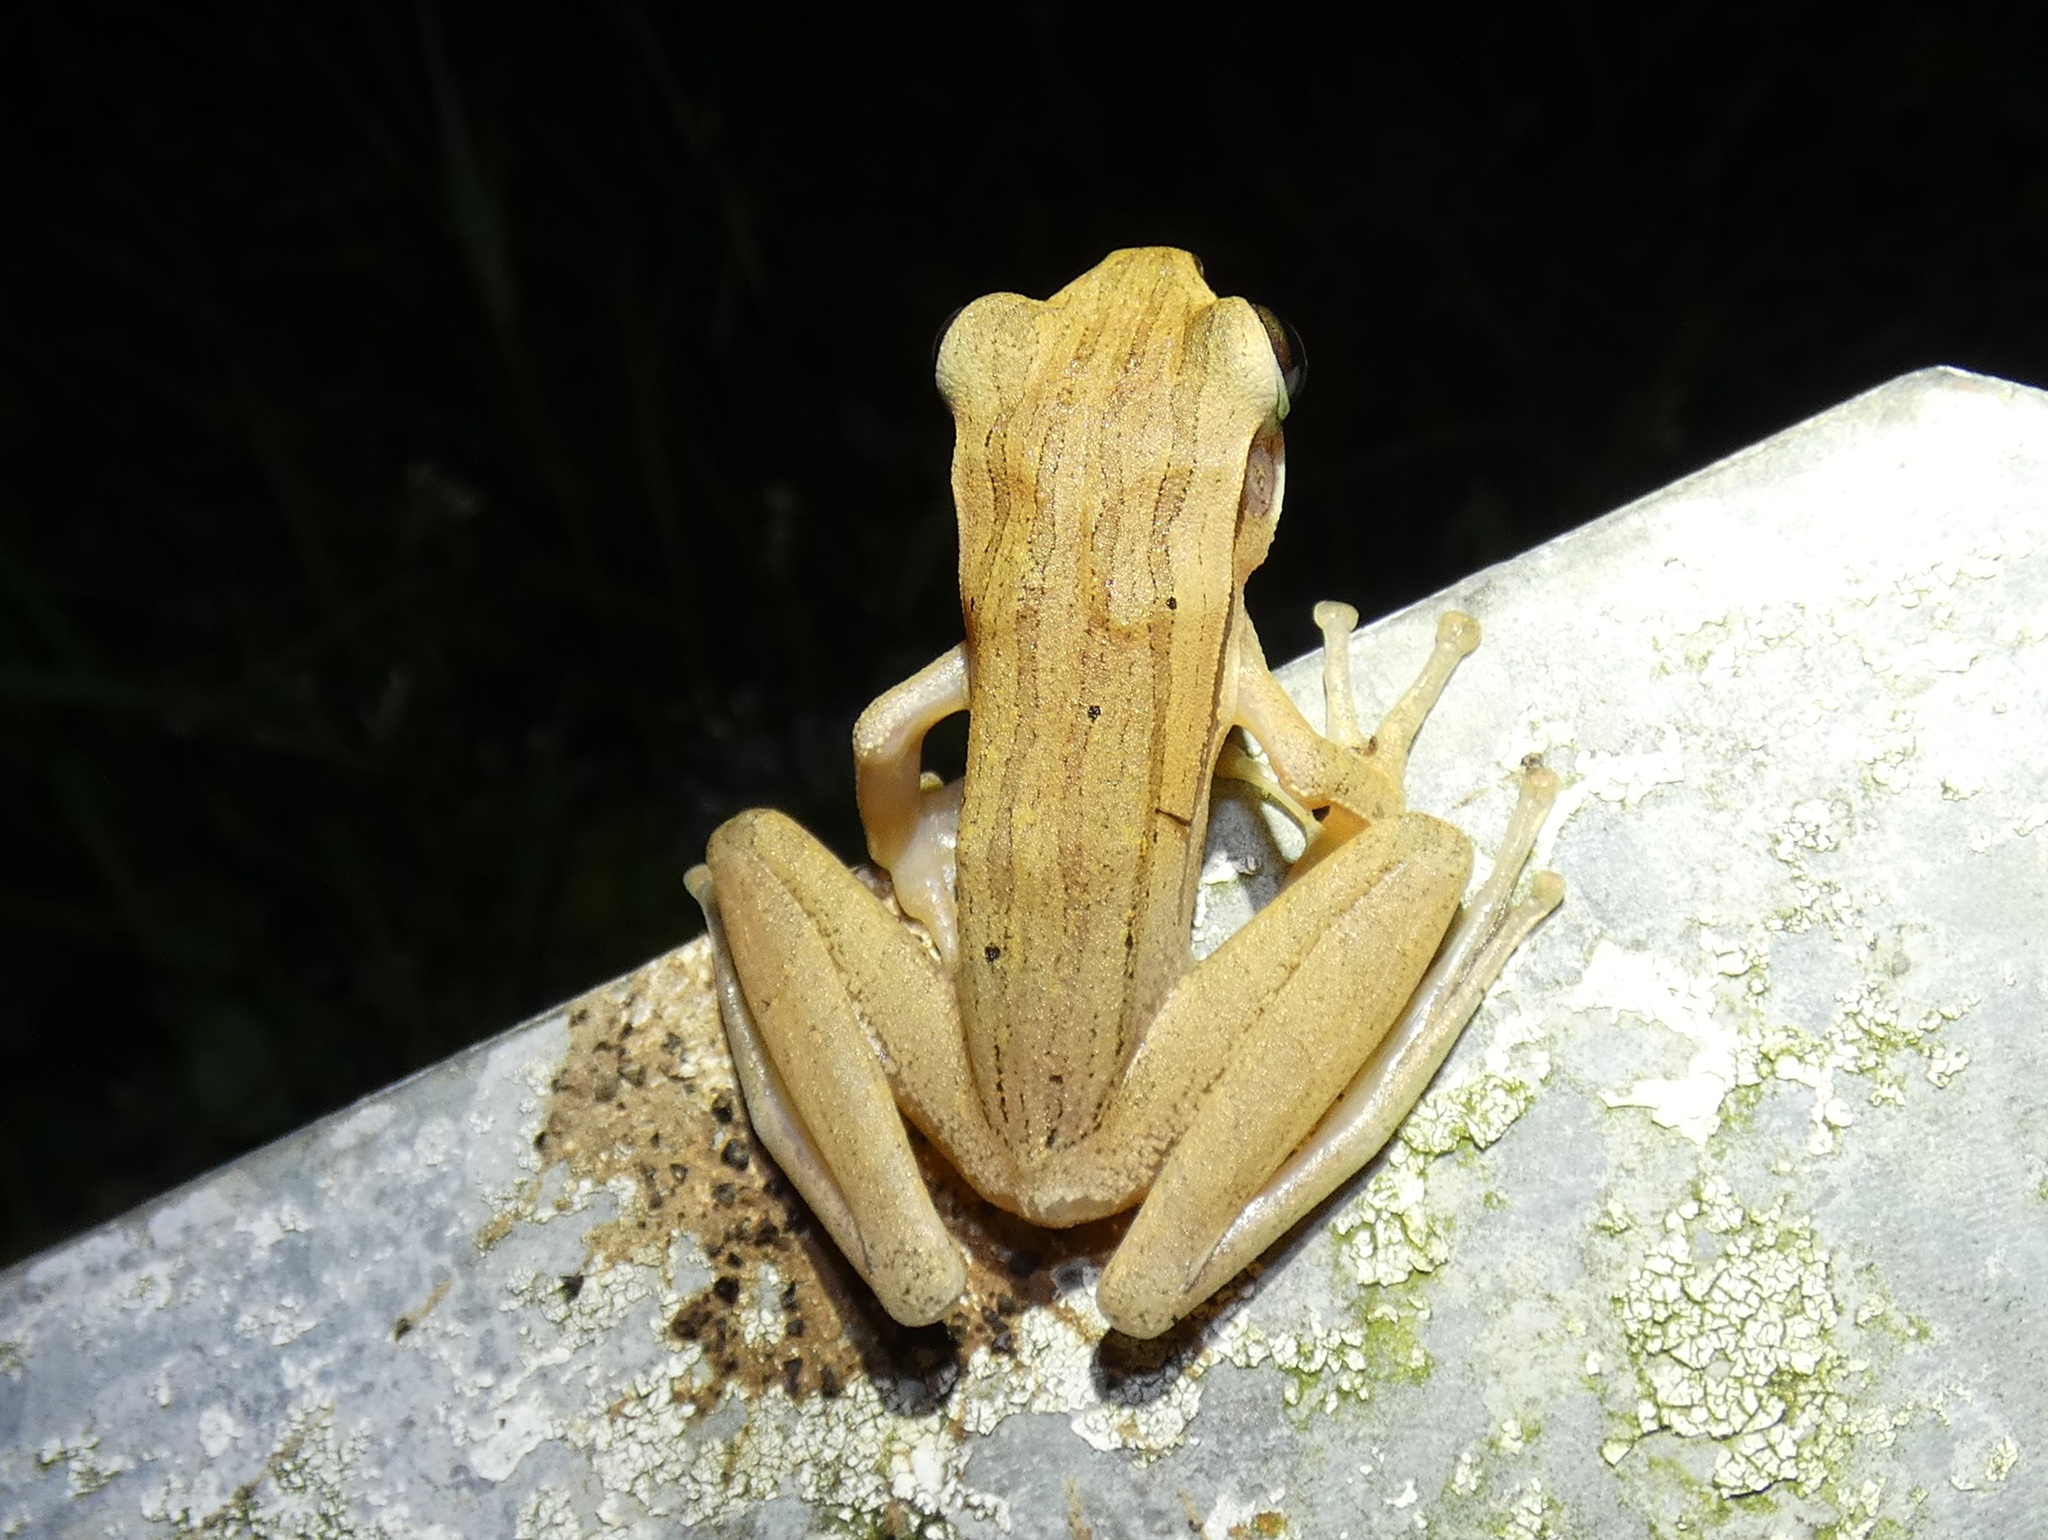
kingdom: Animalia
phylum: Chordata
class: Amphibia
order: Anura
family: Rhacophoridae
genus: Polypedates
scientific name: Polypedates leucomystax
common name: Common tree frog/four-lined tree frog
